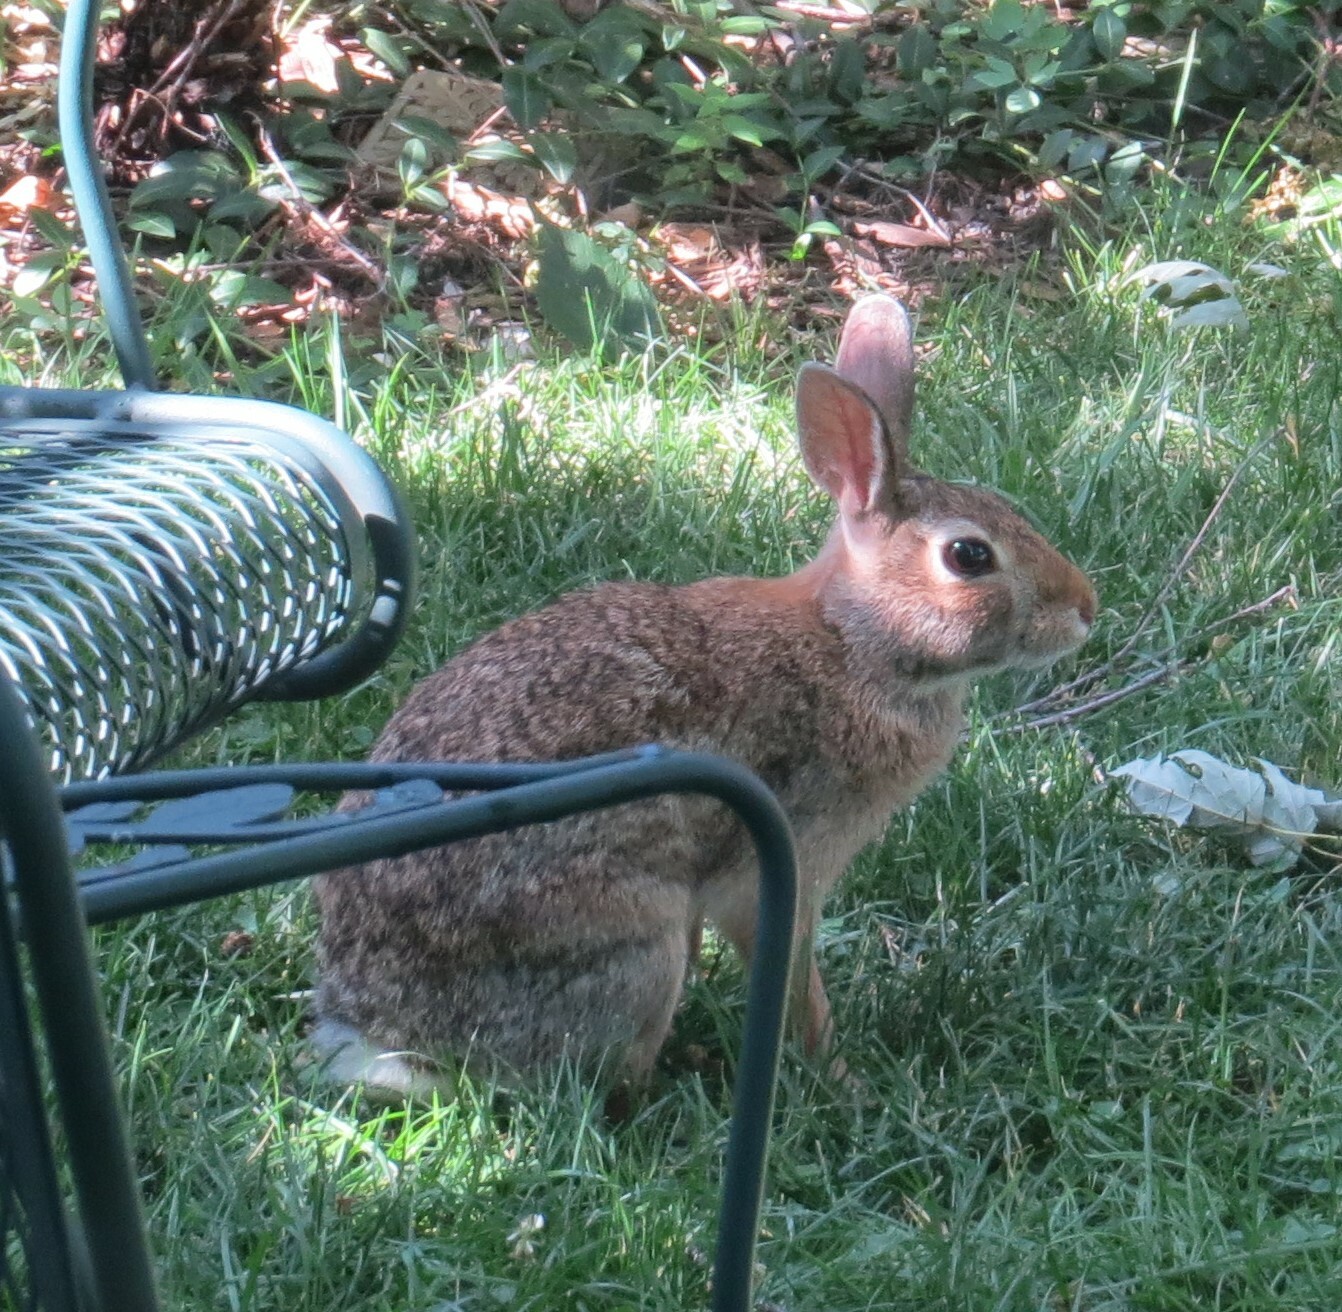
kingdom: Animalia
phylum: Chordata
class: Mammalia
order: Lagomorpha
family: Leporidae
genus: Sylvilagus
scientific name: Sylvilagus floridanus
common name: Eastern cottontail
